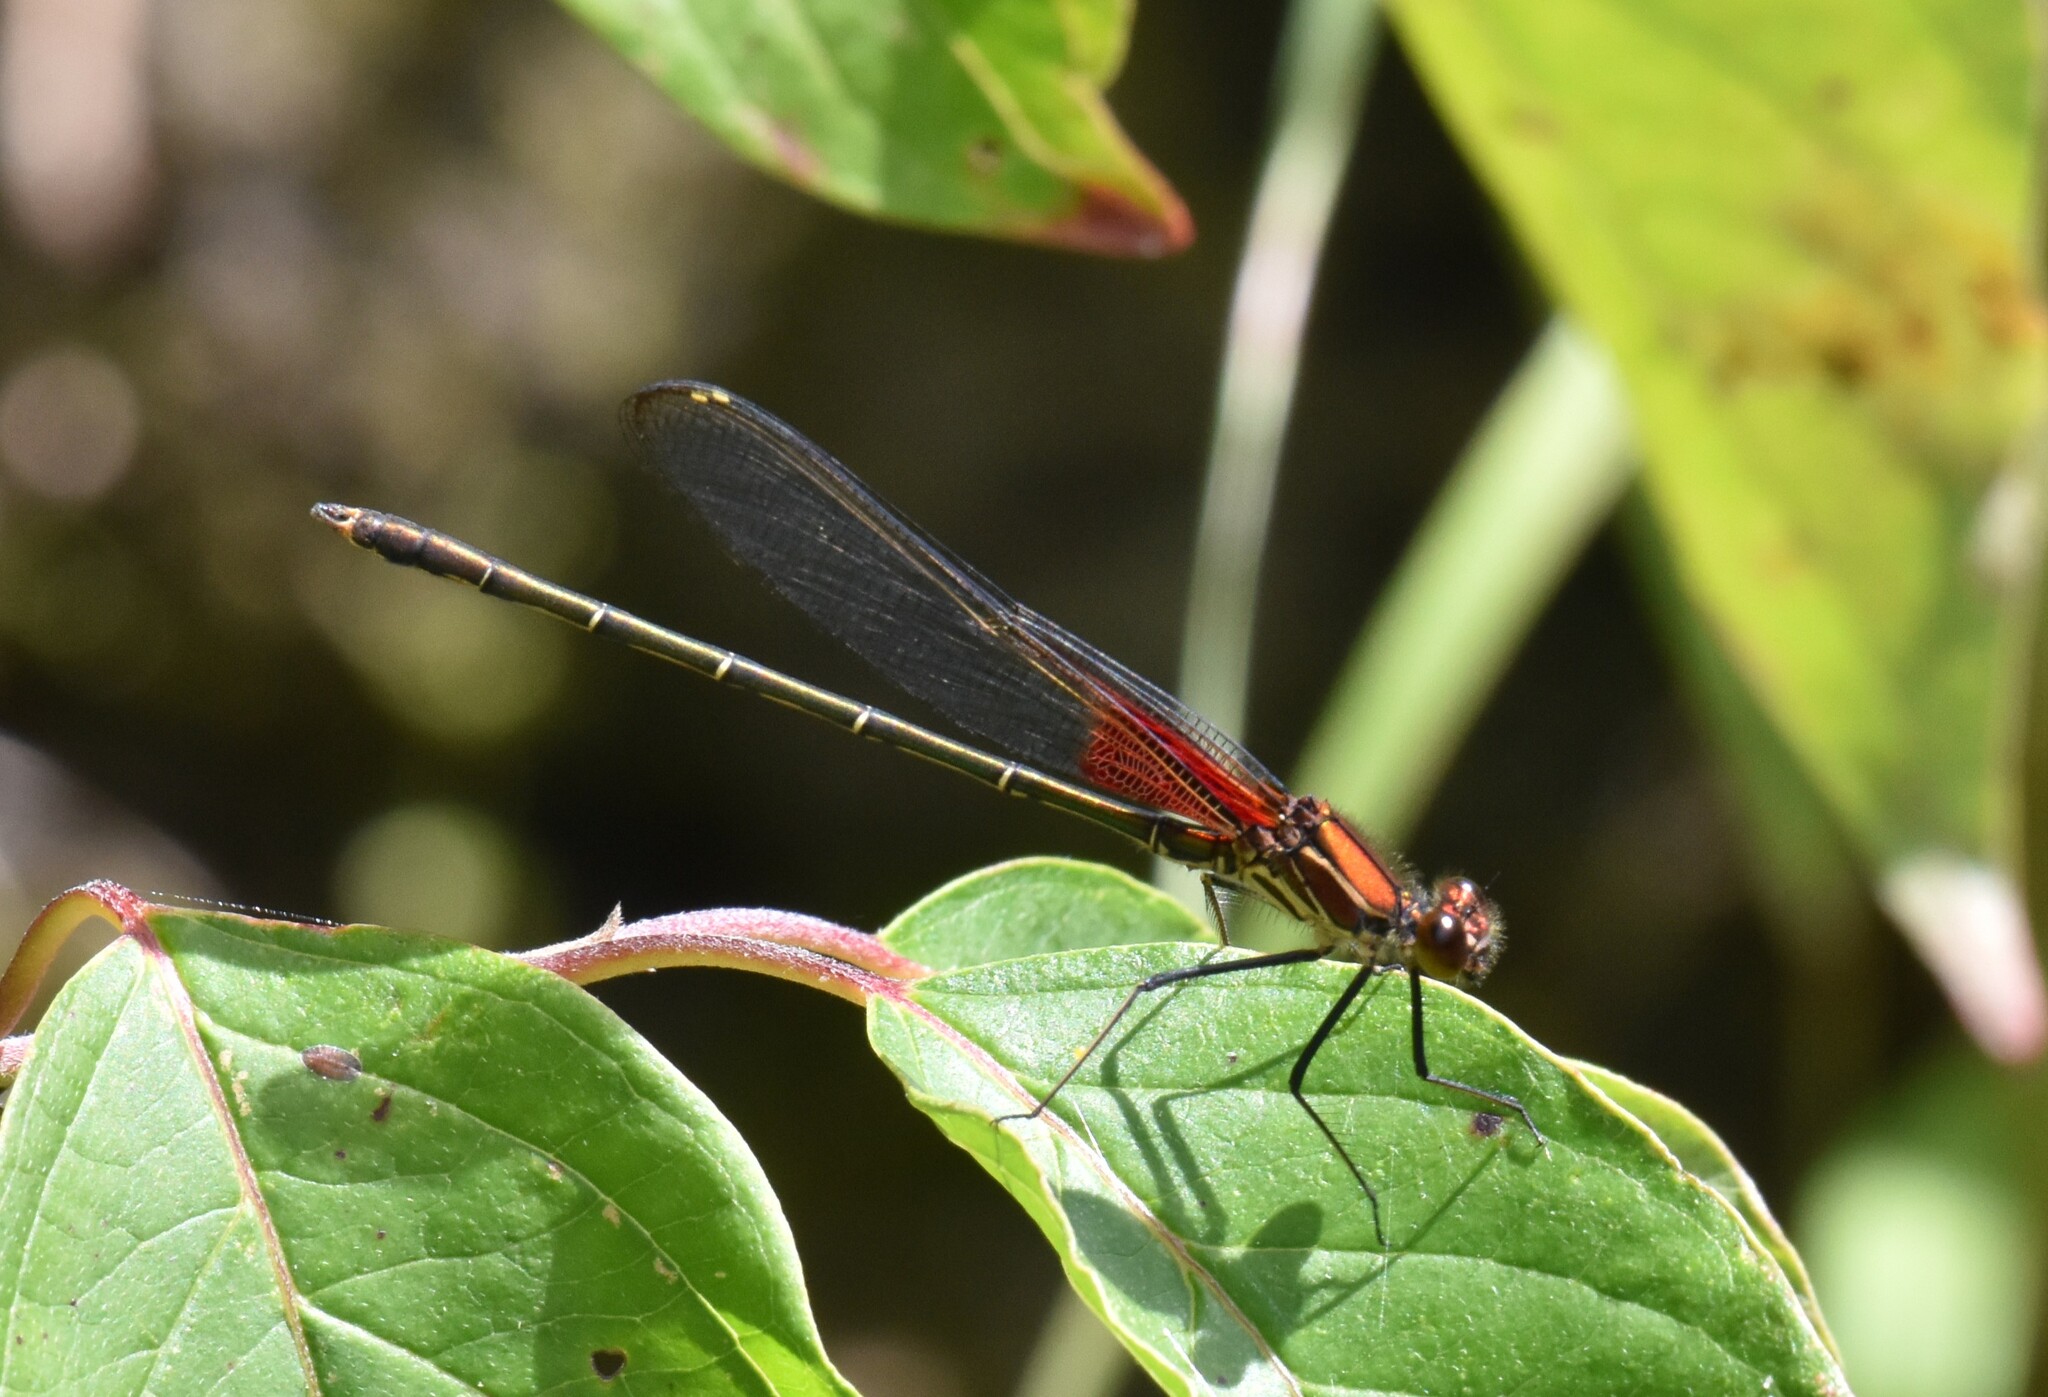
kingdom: Animalia
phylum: Arthropoda
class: Insecta
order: Odonata
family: Calopterygidae
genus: Hetaerina
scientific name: Hetaerina americana
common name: American rubyspot
